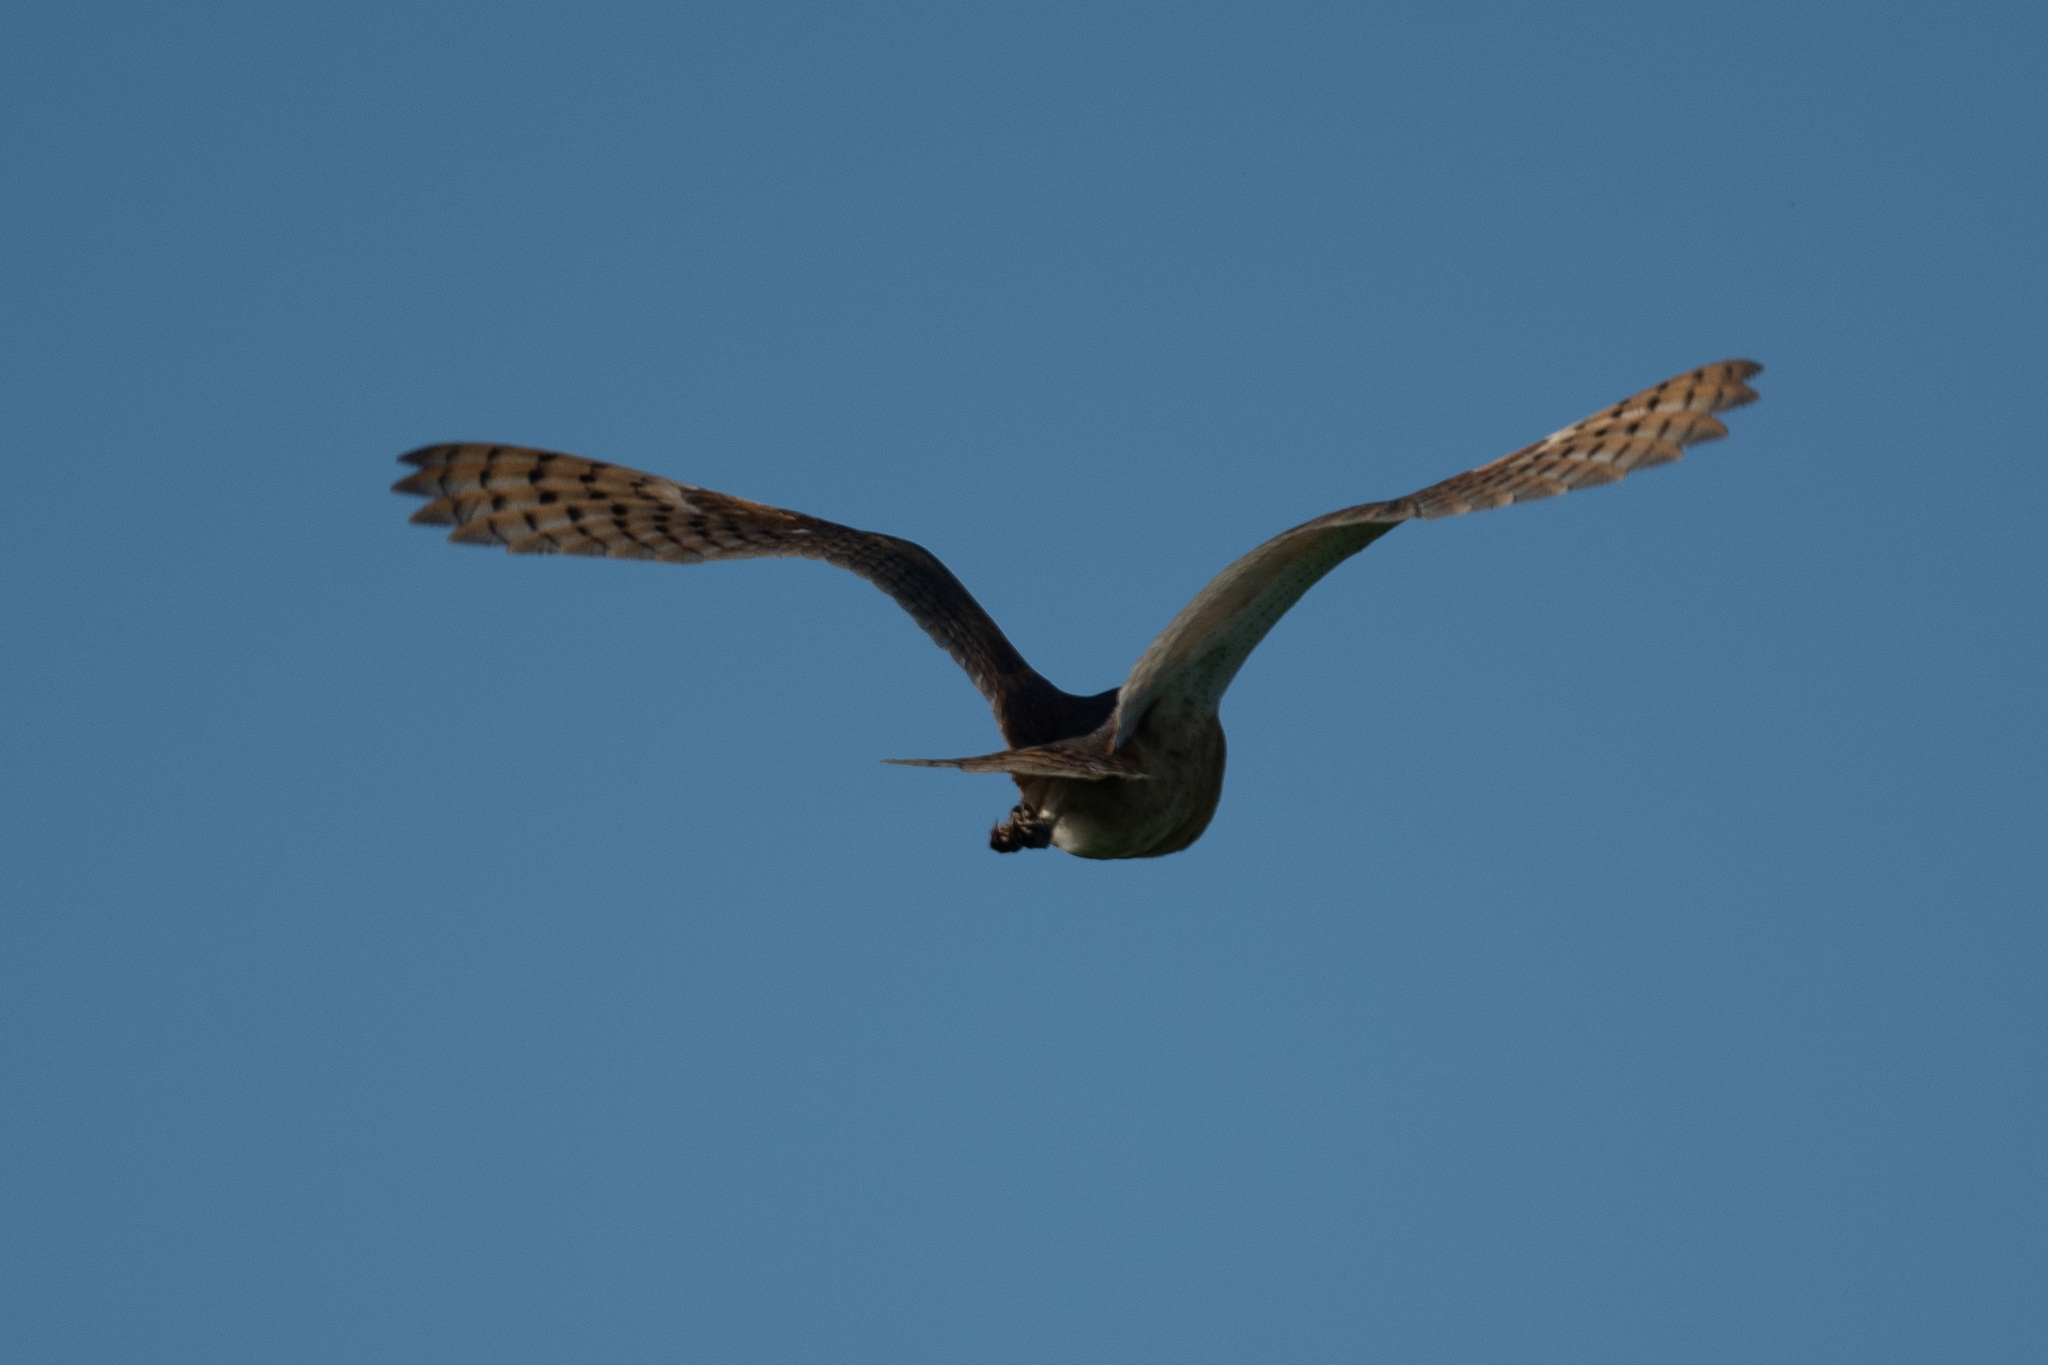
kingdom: Animalia
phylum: Chordata
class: Aves
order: Strigiformes
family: Tytonidae
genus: Tyto
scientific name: Tyto alba
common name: Barn owl
